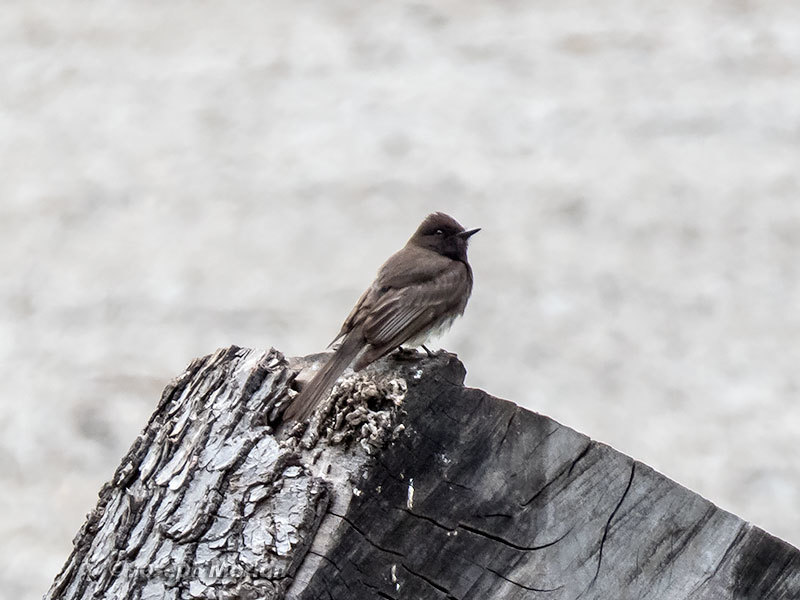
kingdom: Animalia
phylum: Chordata
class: Aves
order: Passeriformes
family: Tyrannidae
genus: Sayornis
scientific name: Sayornis nigricans
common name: Black phoebe
